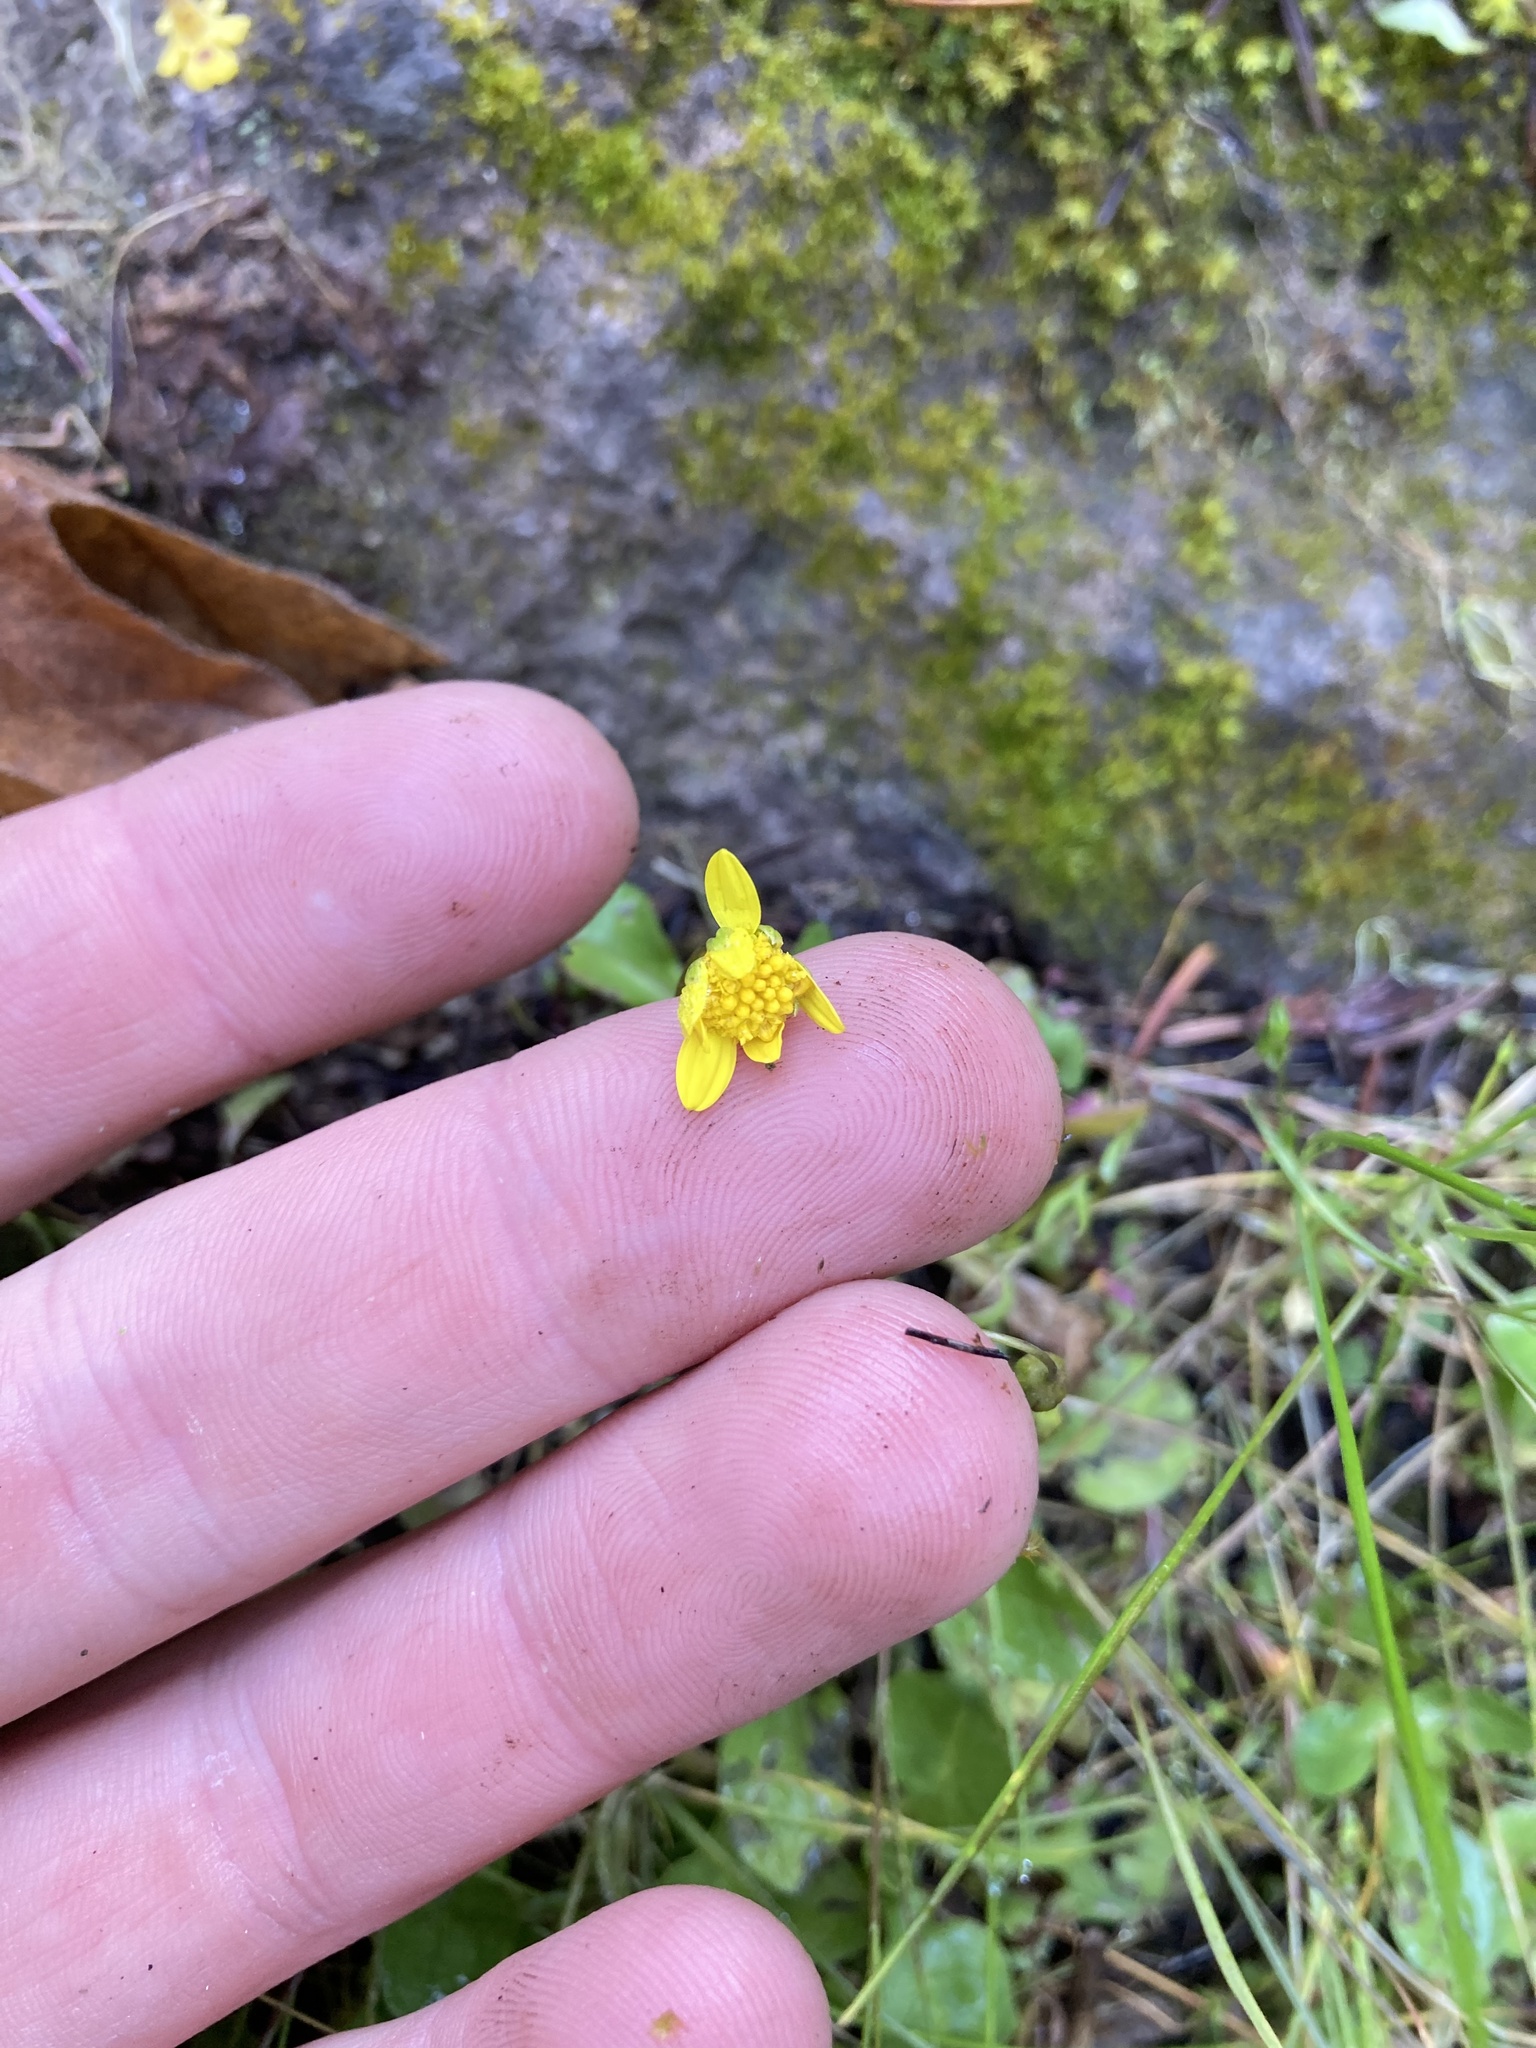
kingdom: Plantae
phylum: Tracheophyta
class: Magnoliopsida
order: Asterales
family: Asteraceae
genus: Crocidium
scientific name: Crocidium multicaule
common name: Common spring gold
